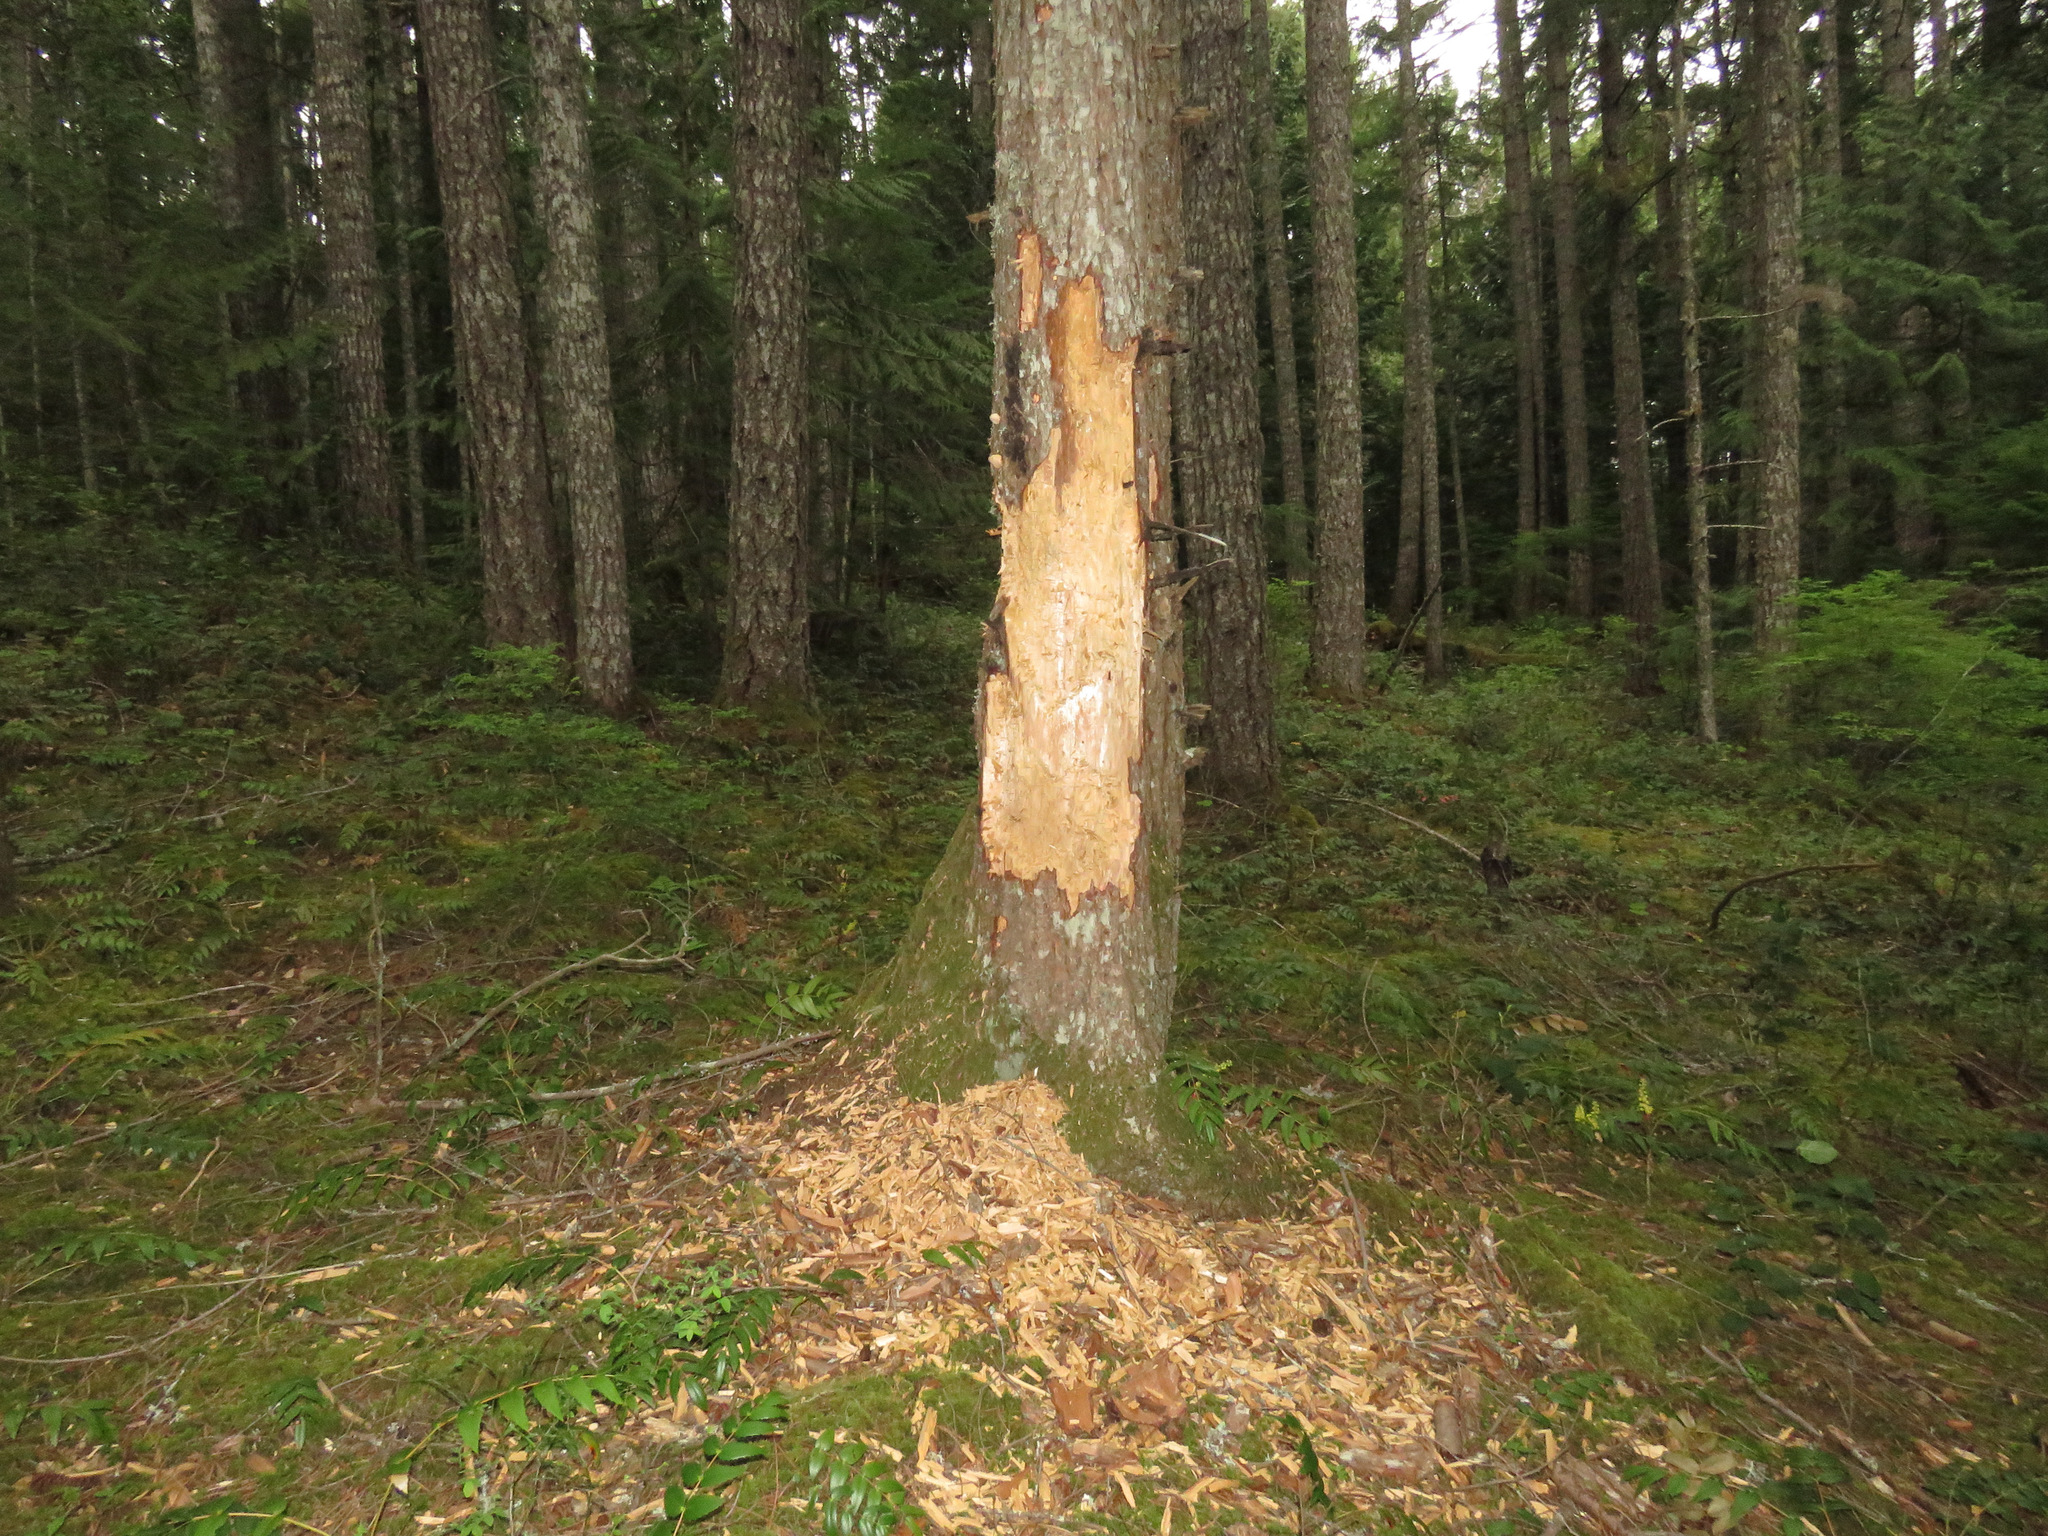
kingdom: Animalia
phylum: Chordata
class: Aves
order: Piciformes
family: Picidae
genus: Dryocopus
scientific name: Dryocopus pileatus
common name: Pileated woodpecker
